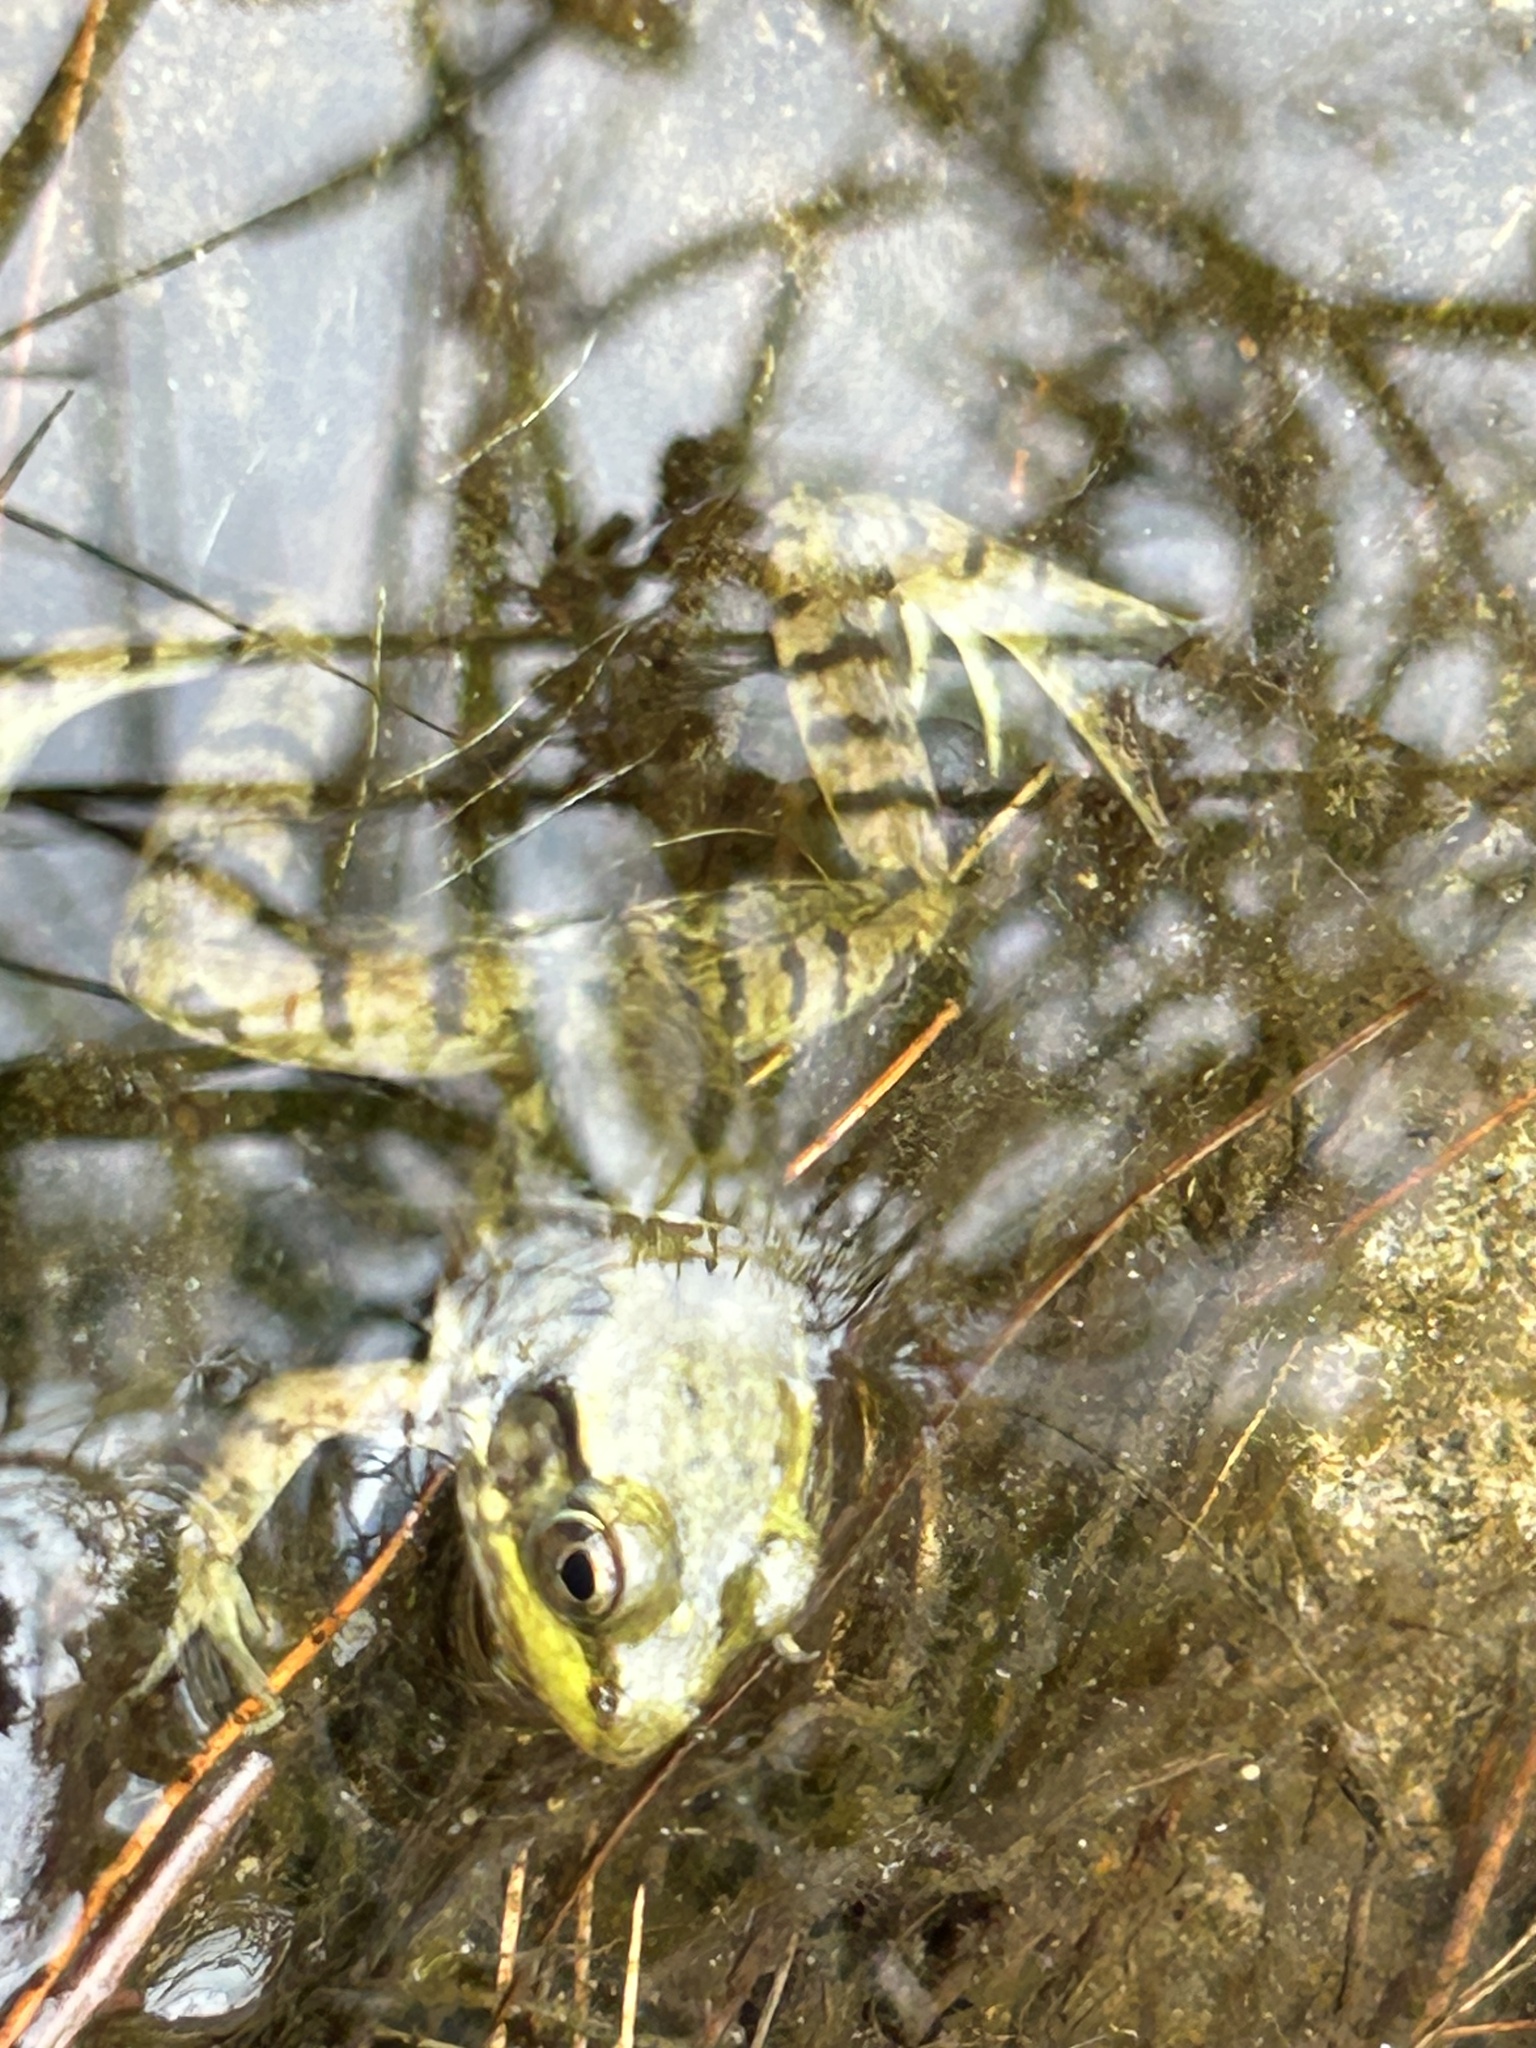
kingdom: Animalia
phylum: Chordata
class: Amphibia
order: Anura
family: Ranidae
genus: Lithobates
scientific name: Lithobates clamitans
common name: Green frog
